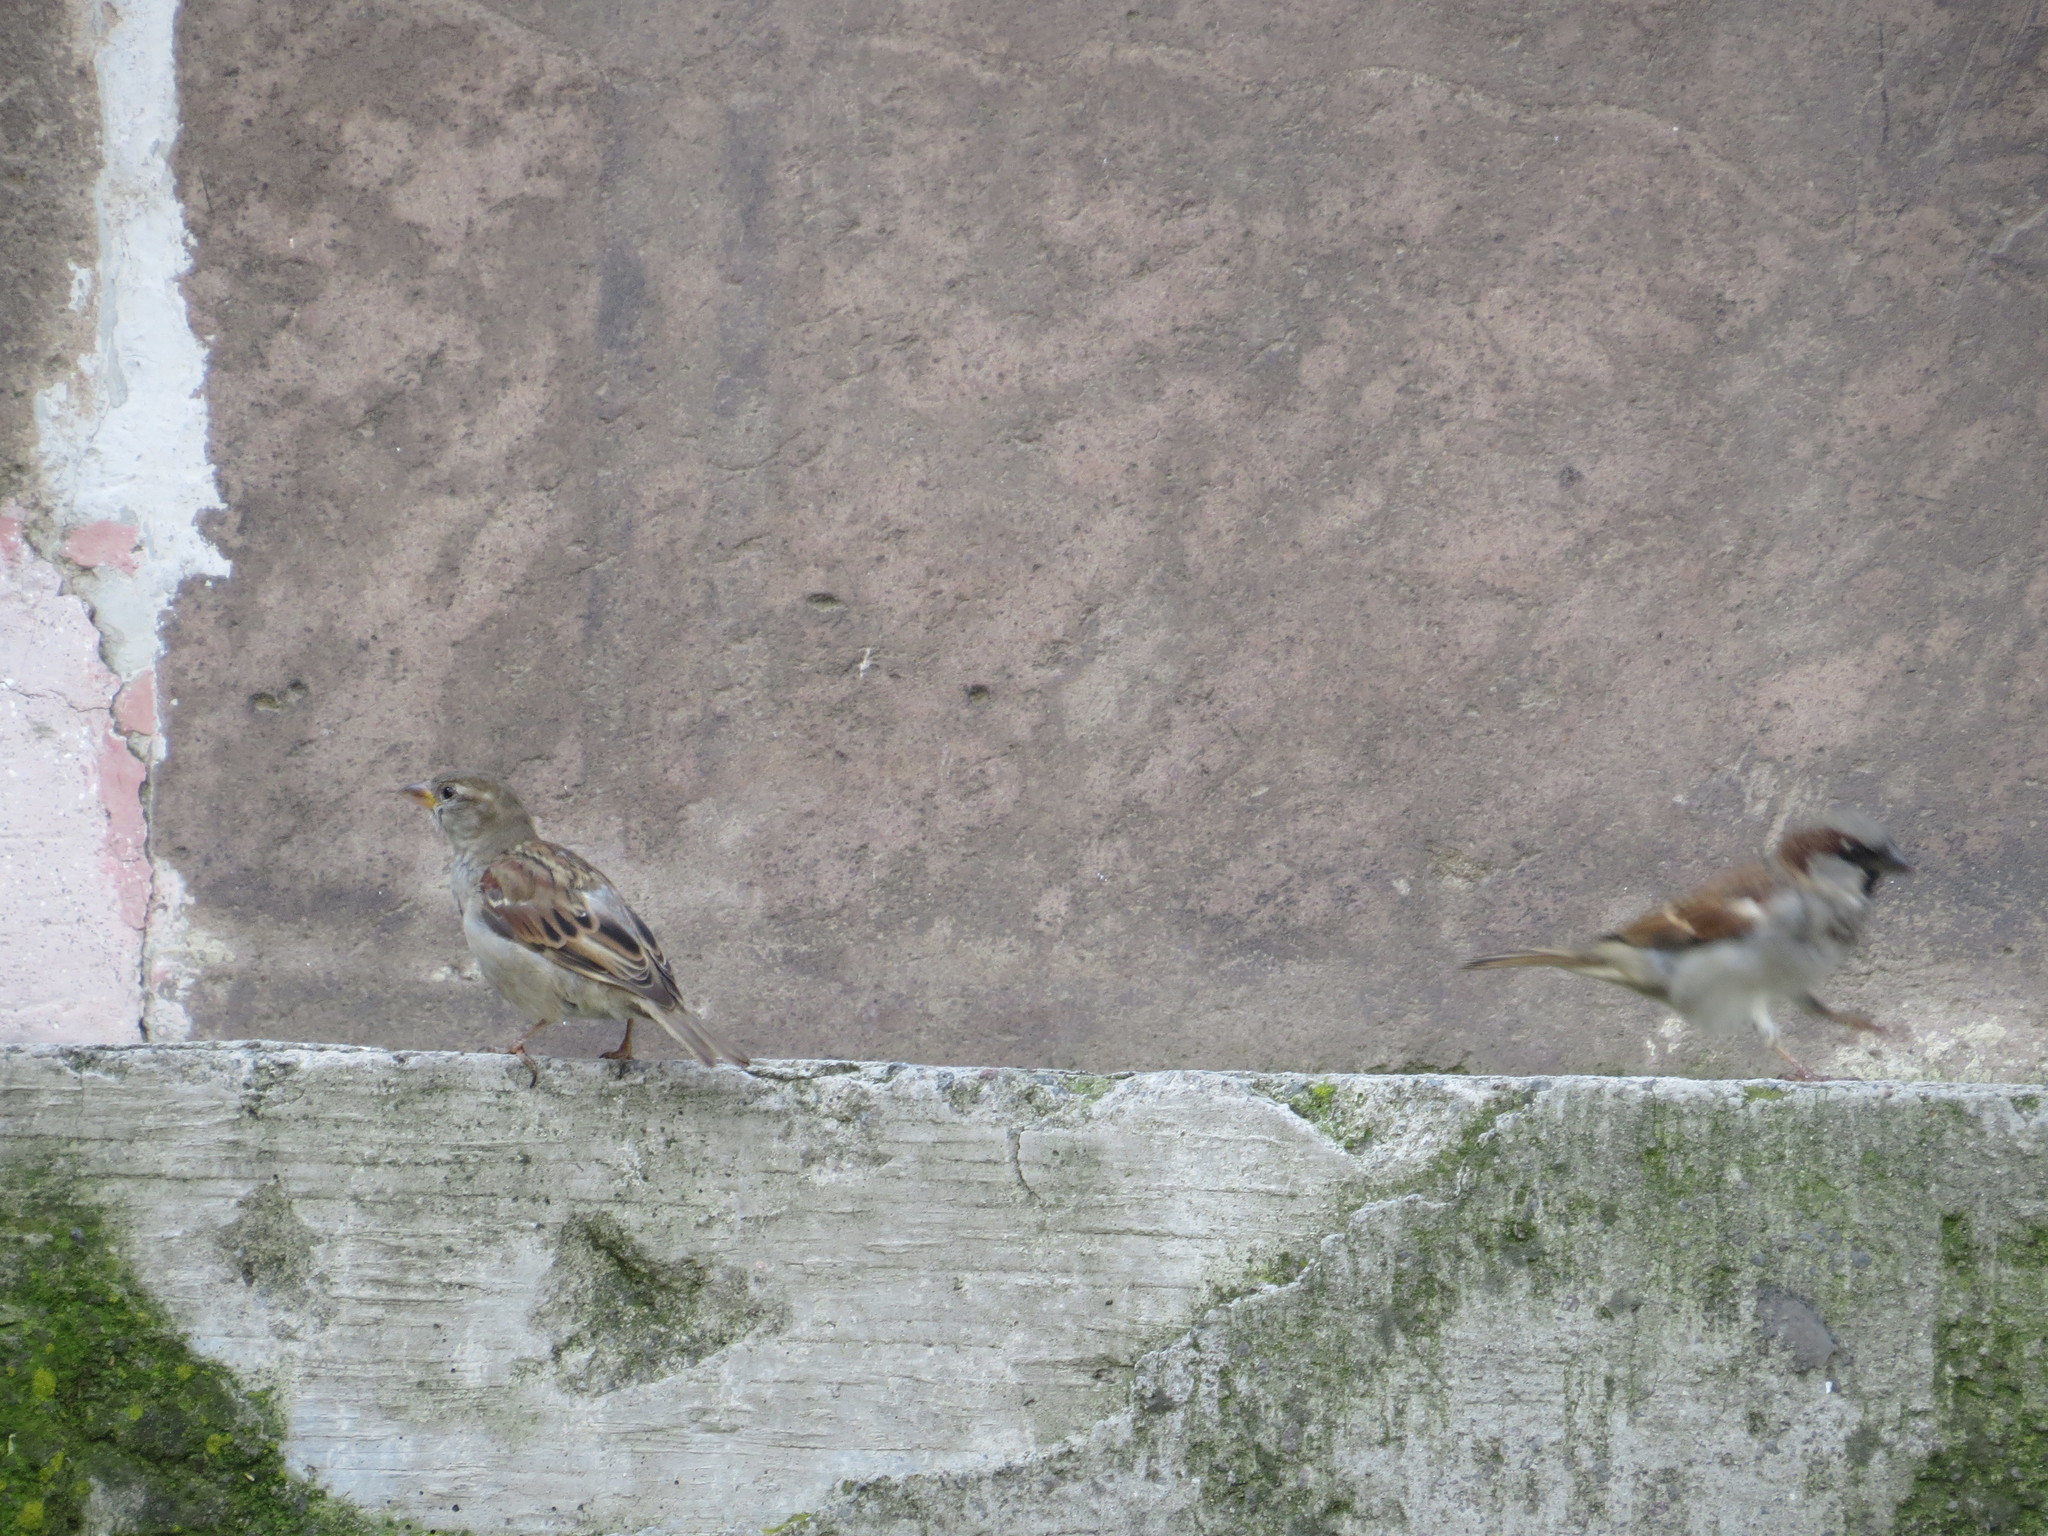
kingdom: Animalia
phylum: Chordata
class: Aves
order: Passeriformes
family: Passeridae
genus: Passer
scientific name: Passer domesticus
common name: House sparrow
